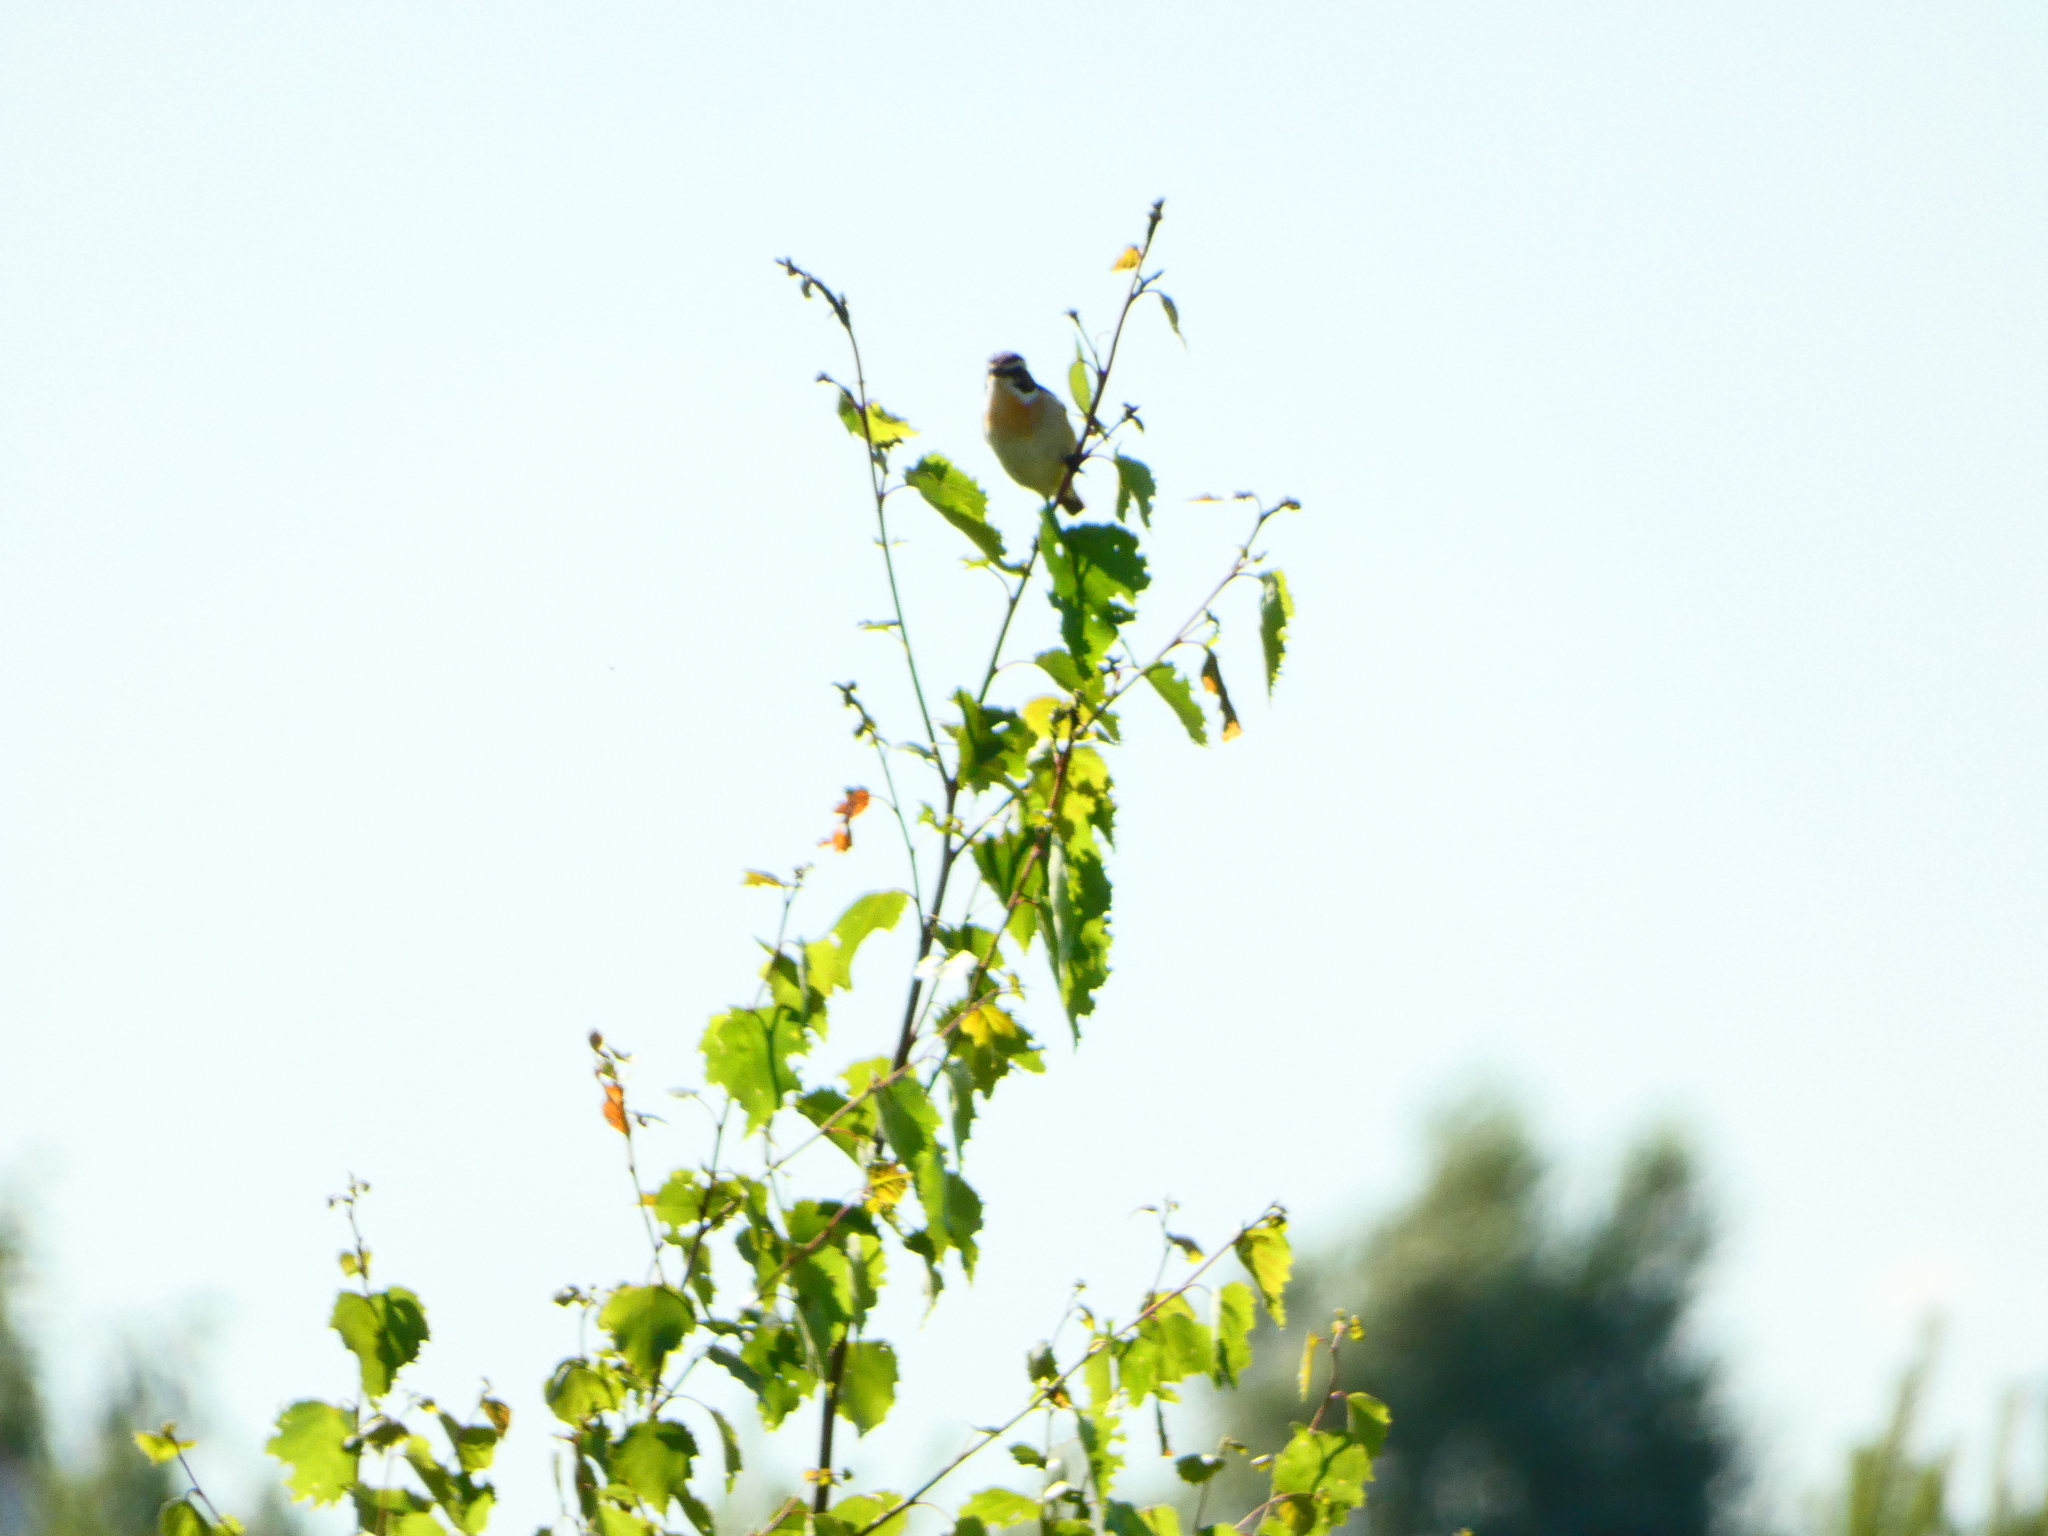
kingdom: Animalia
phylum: Chordata
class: Aves
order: Passeriformes
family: Muscicapidae
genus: Saxicola
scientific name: Saxicola rubetra
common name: Whinchat
